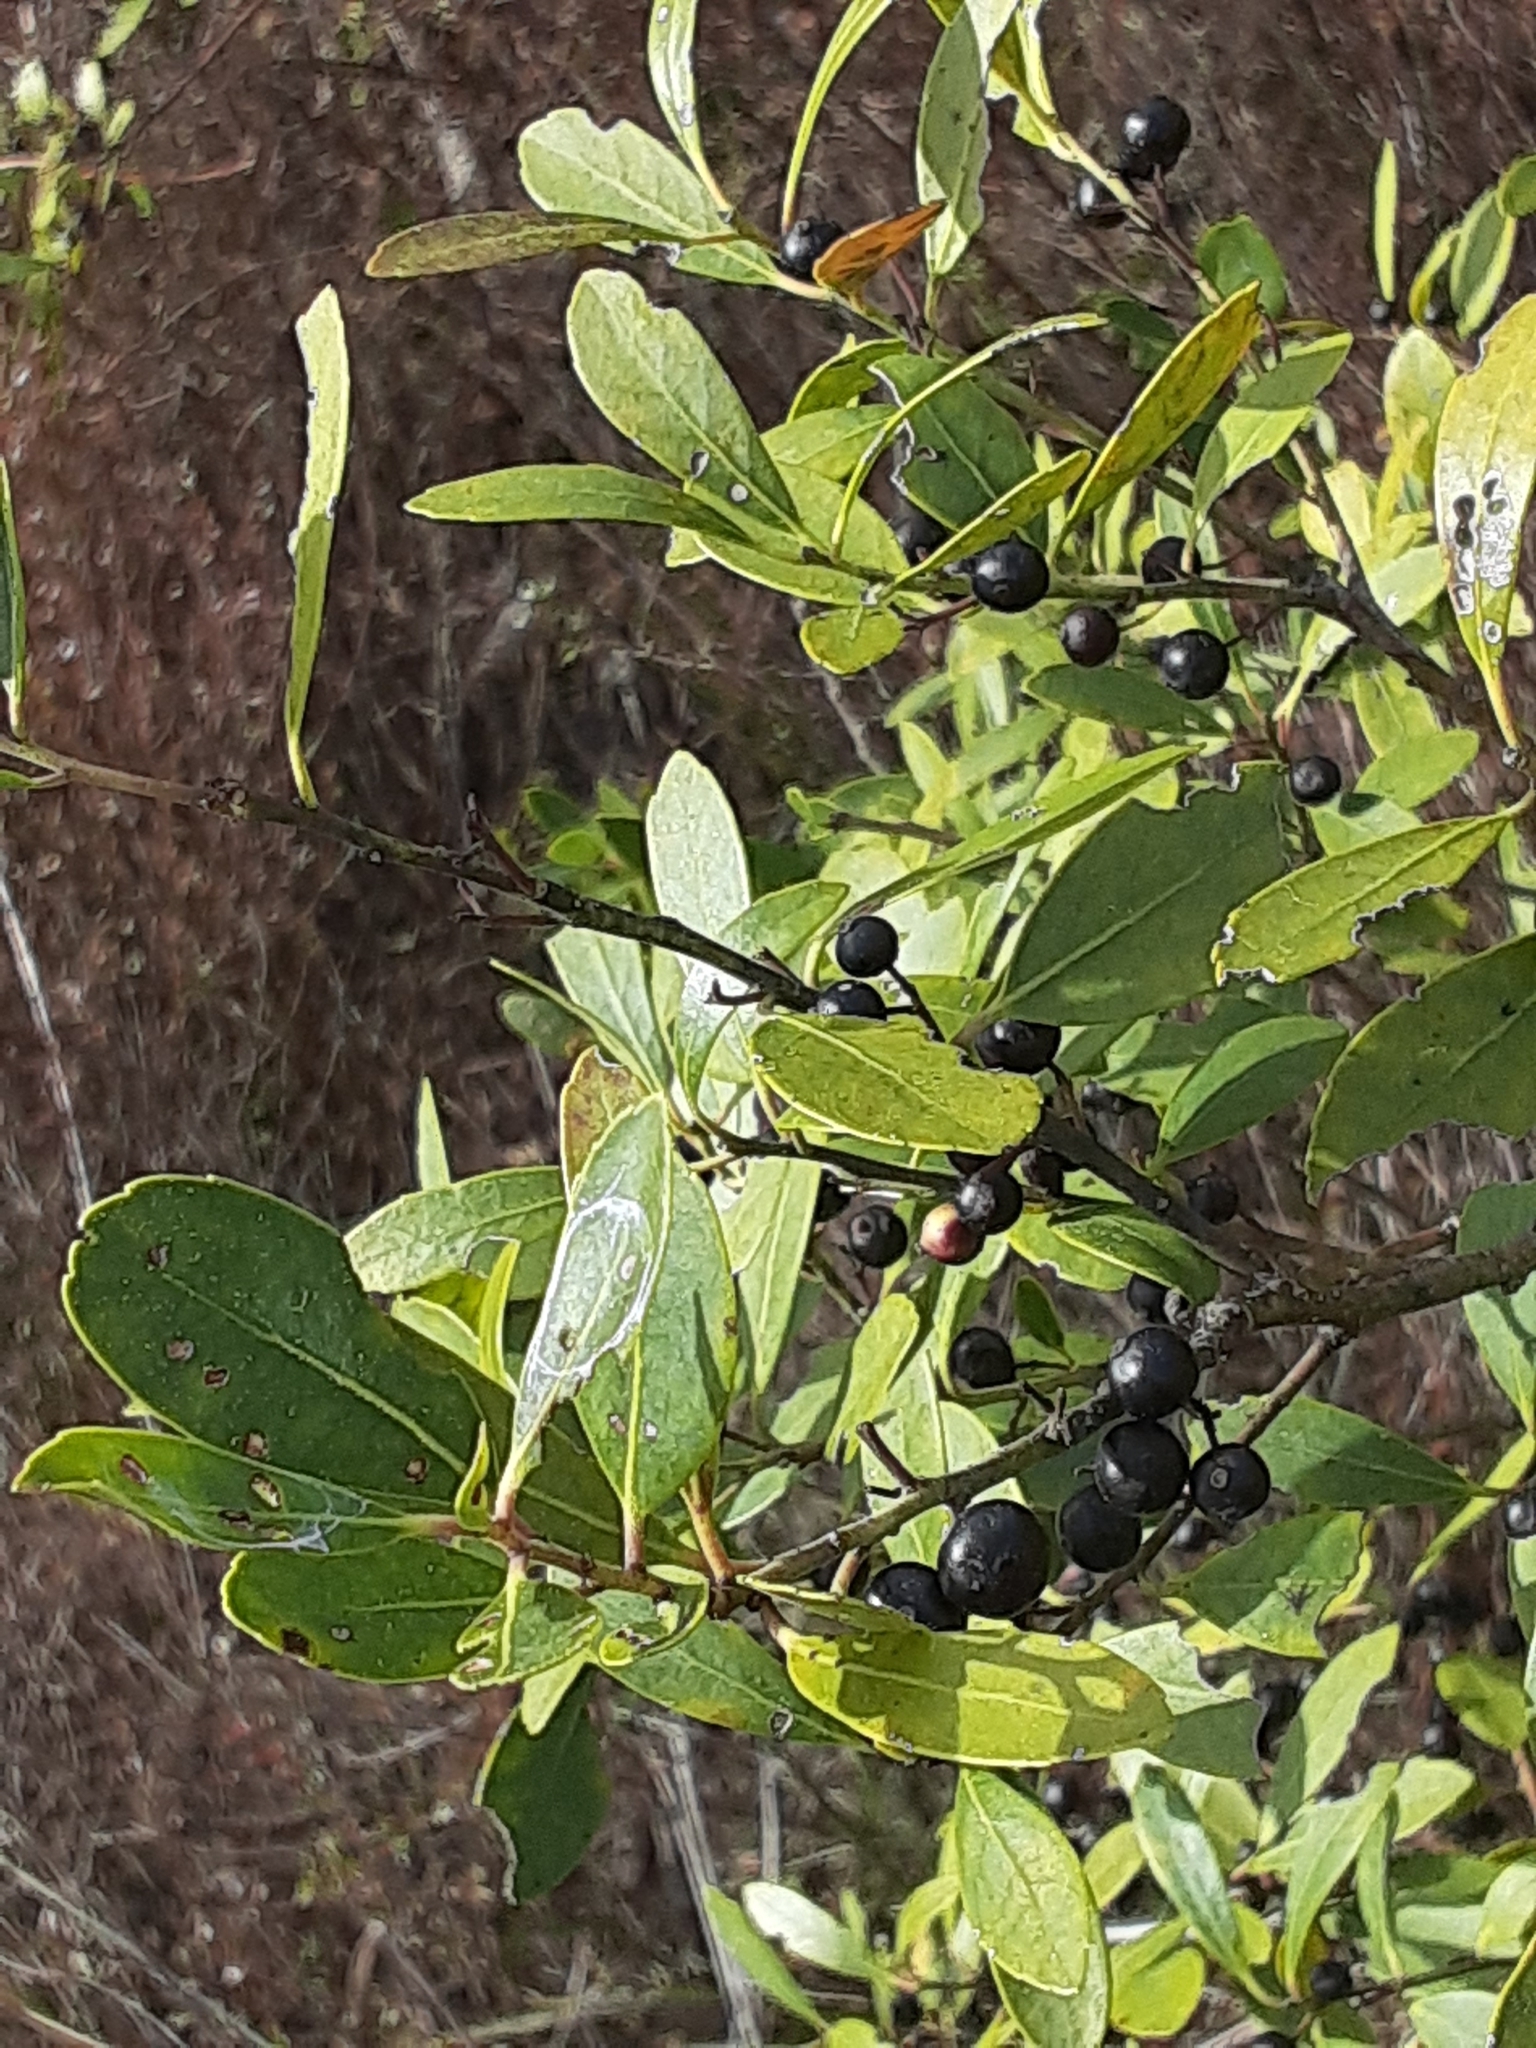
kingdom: Plantae
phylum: Tracheophyta
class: Magnoliopsida
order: Aquifoliales
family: Aquifoliaceae
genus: Ilex
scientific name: Ilex glabra
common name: Bitter gallberry
